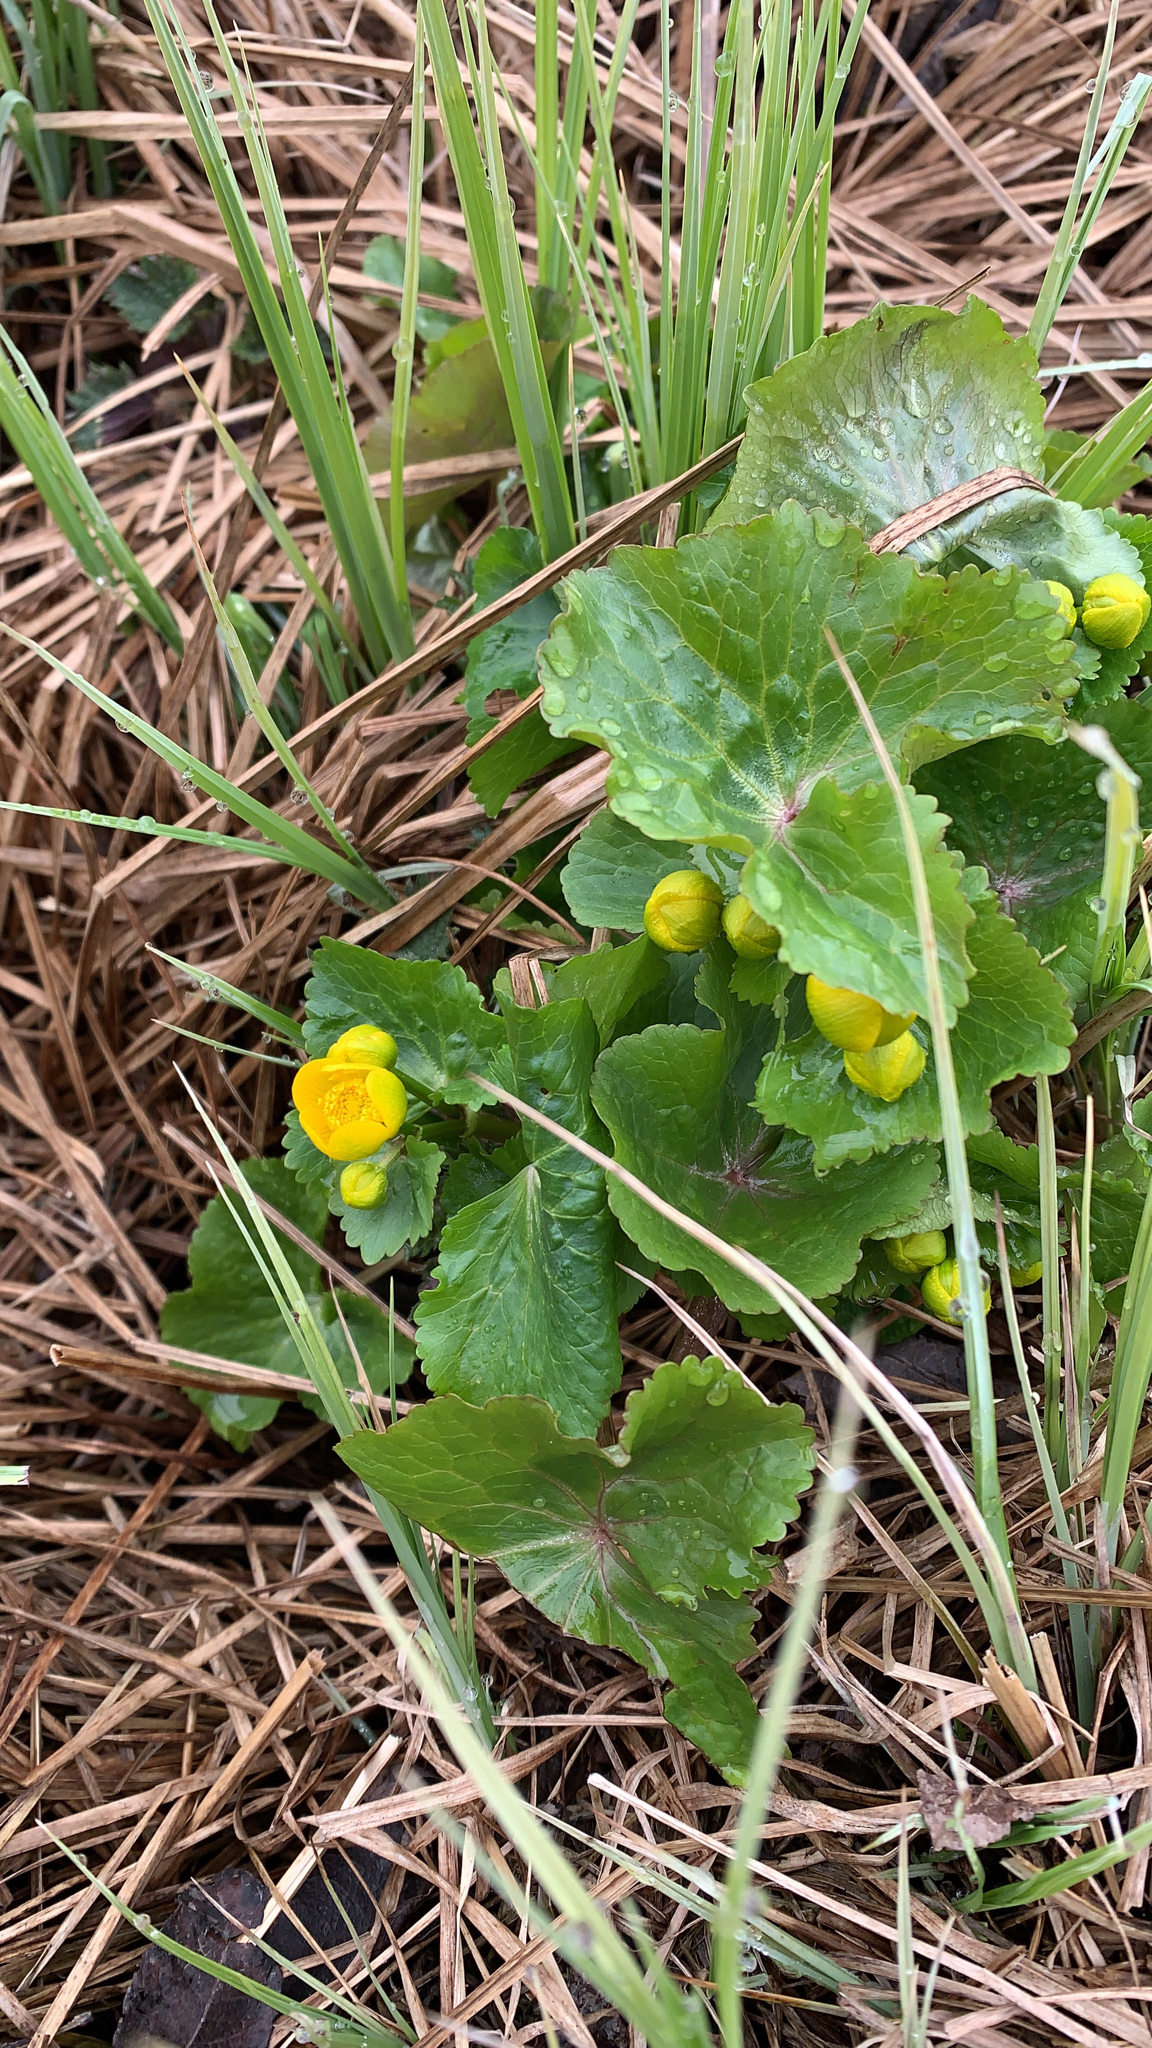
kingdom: Plantae
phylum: Tracheophyta
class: Magnoliopsida
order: Ranunculales
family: Ranunculaceae
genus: Caltha
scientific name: Caltha palustris
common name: Marsh marigold
